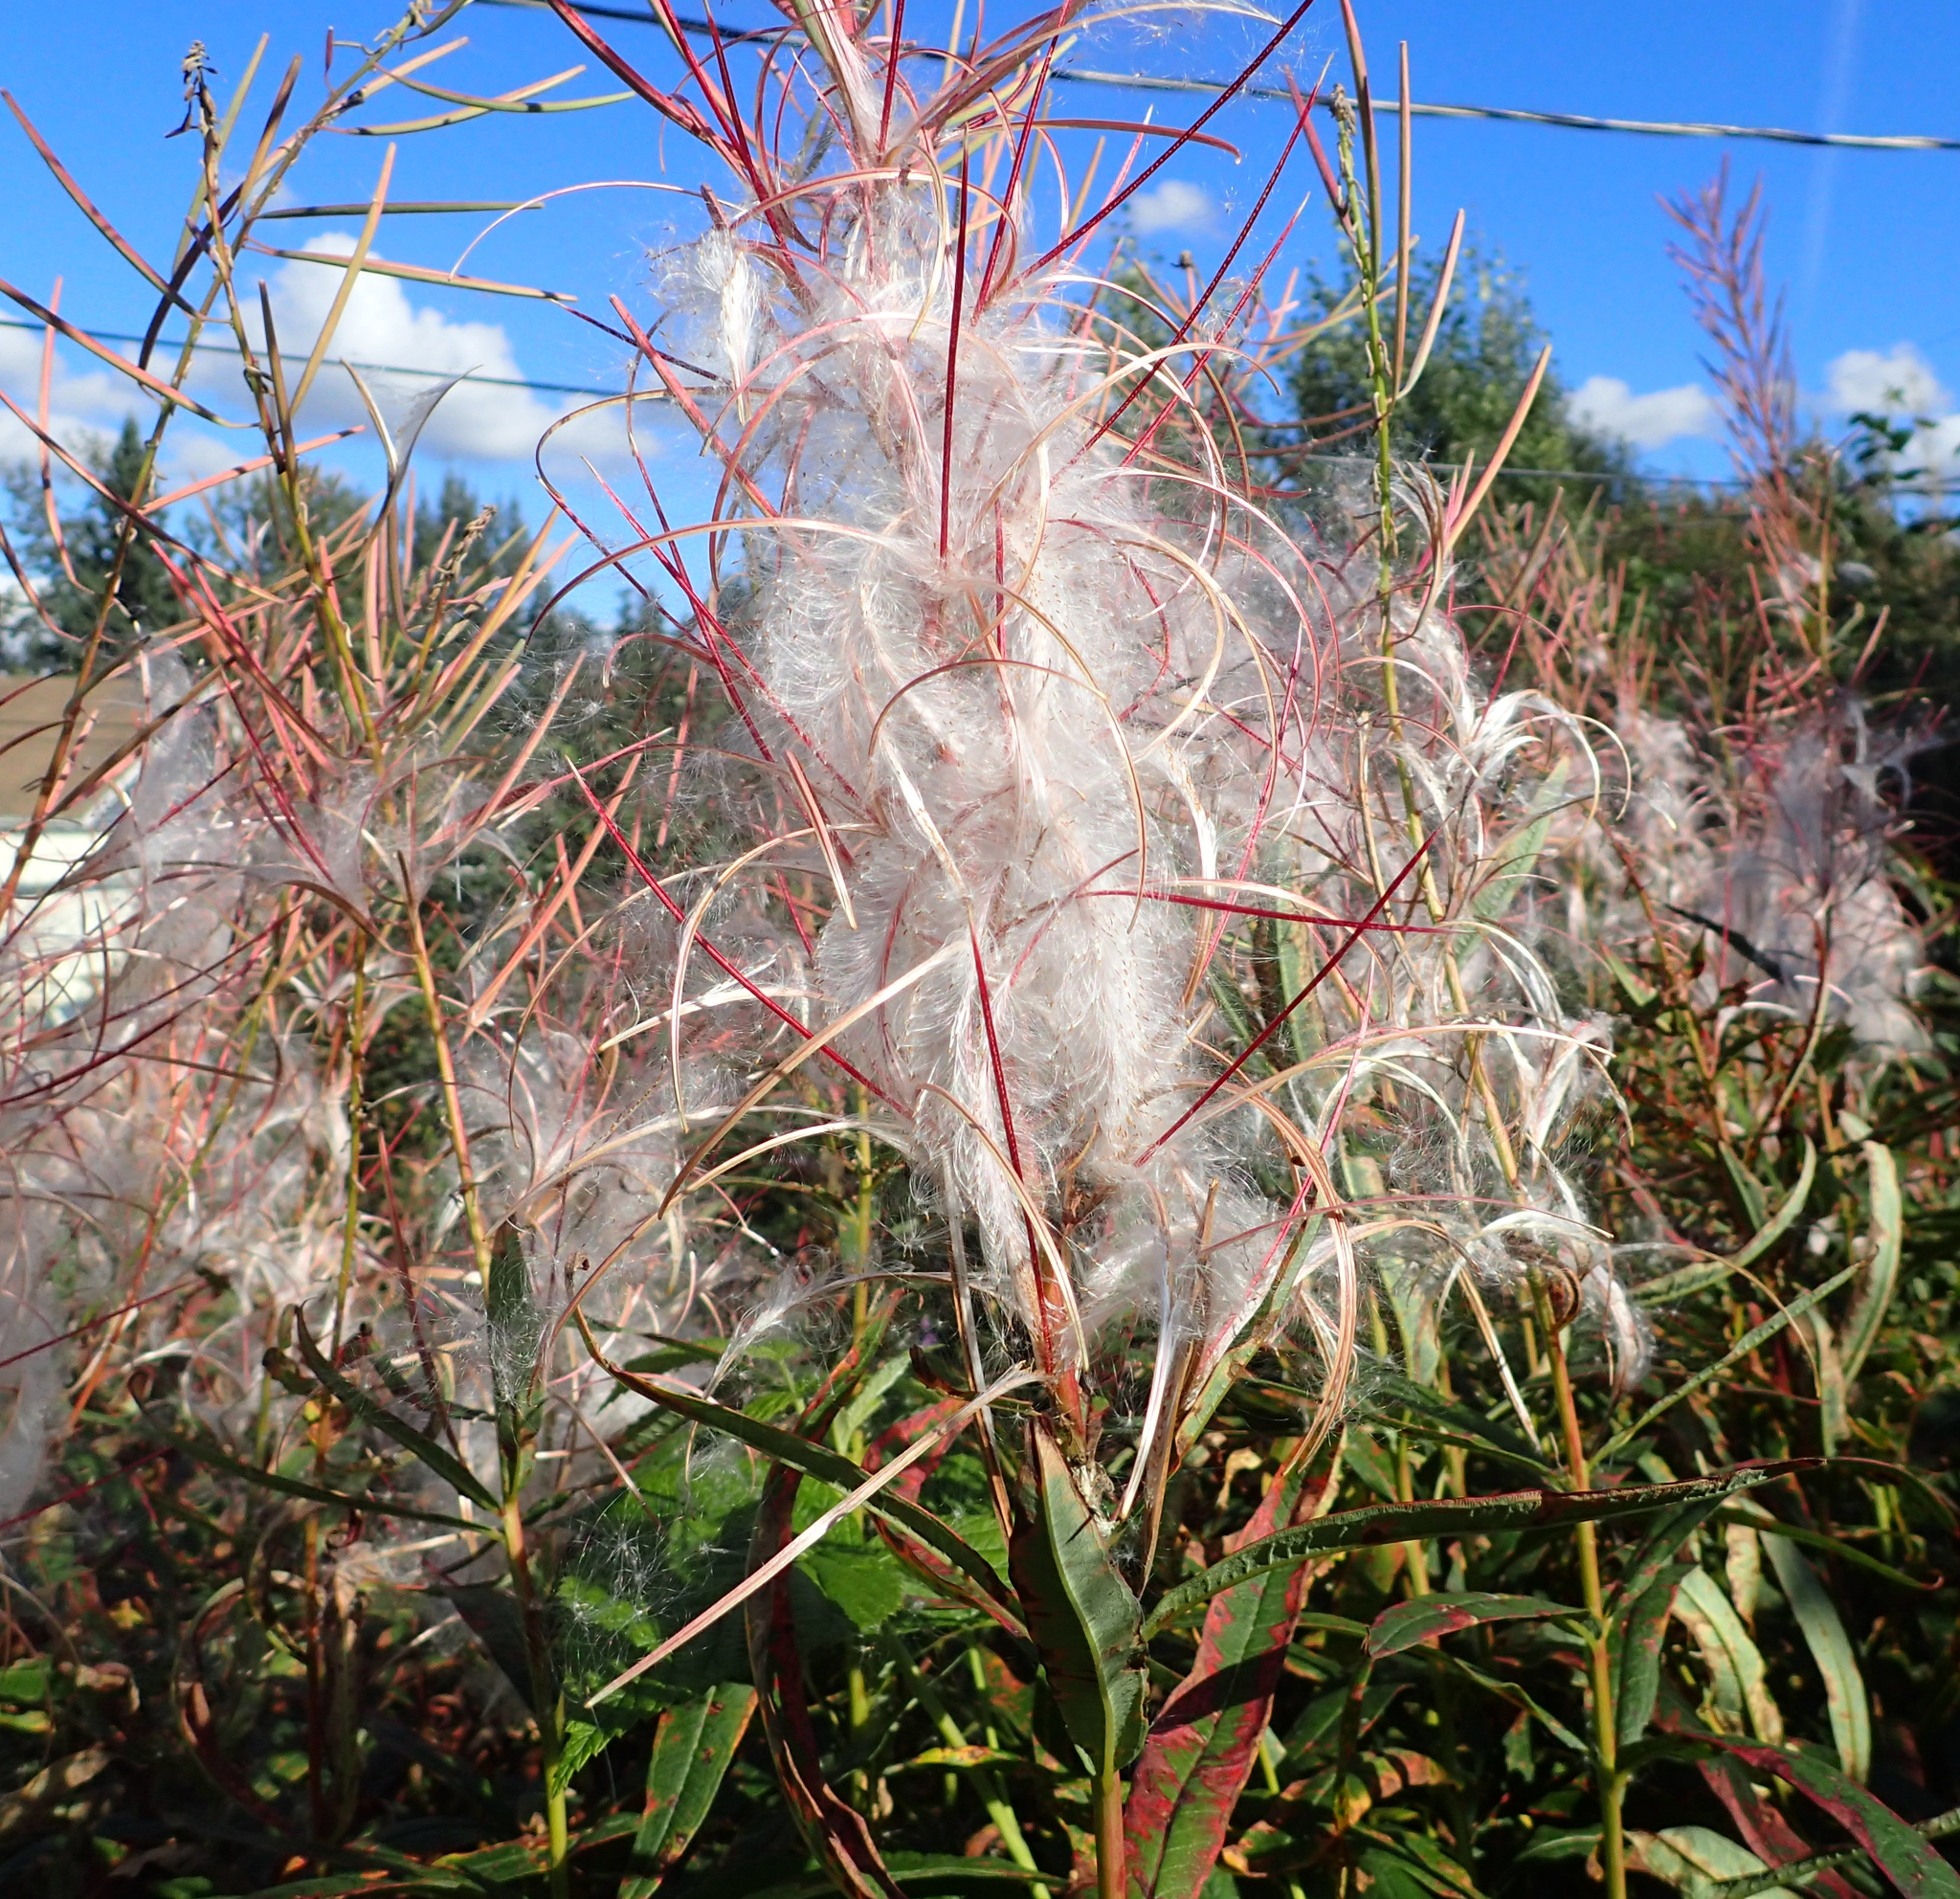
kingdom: Plantae
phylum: Tracheophyta
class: Magnoliopsida
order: Myrtales
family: Onagraceae
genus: Chamaenerion
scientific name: Chamaenerion angustifolium
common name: Fireweed
